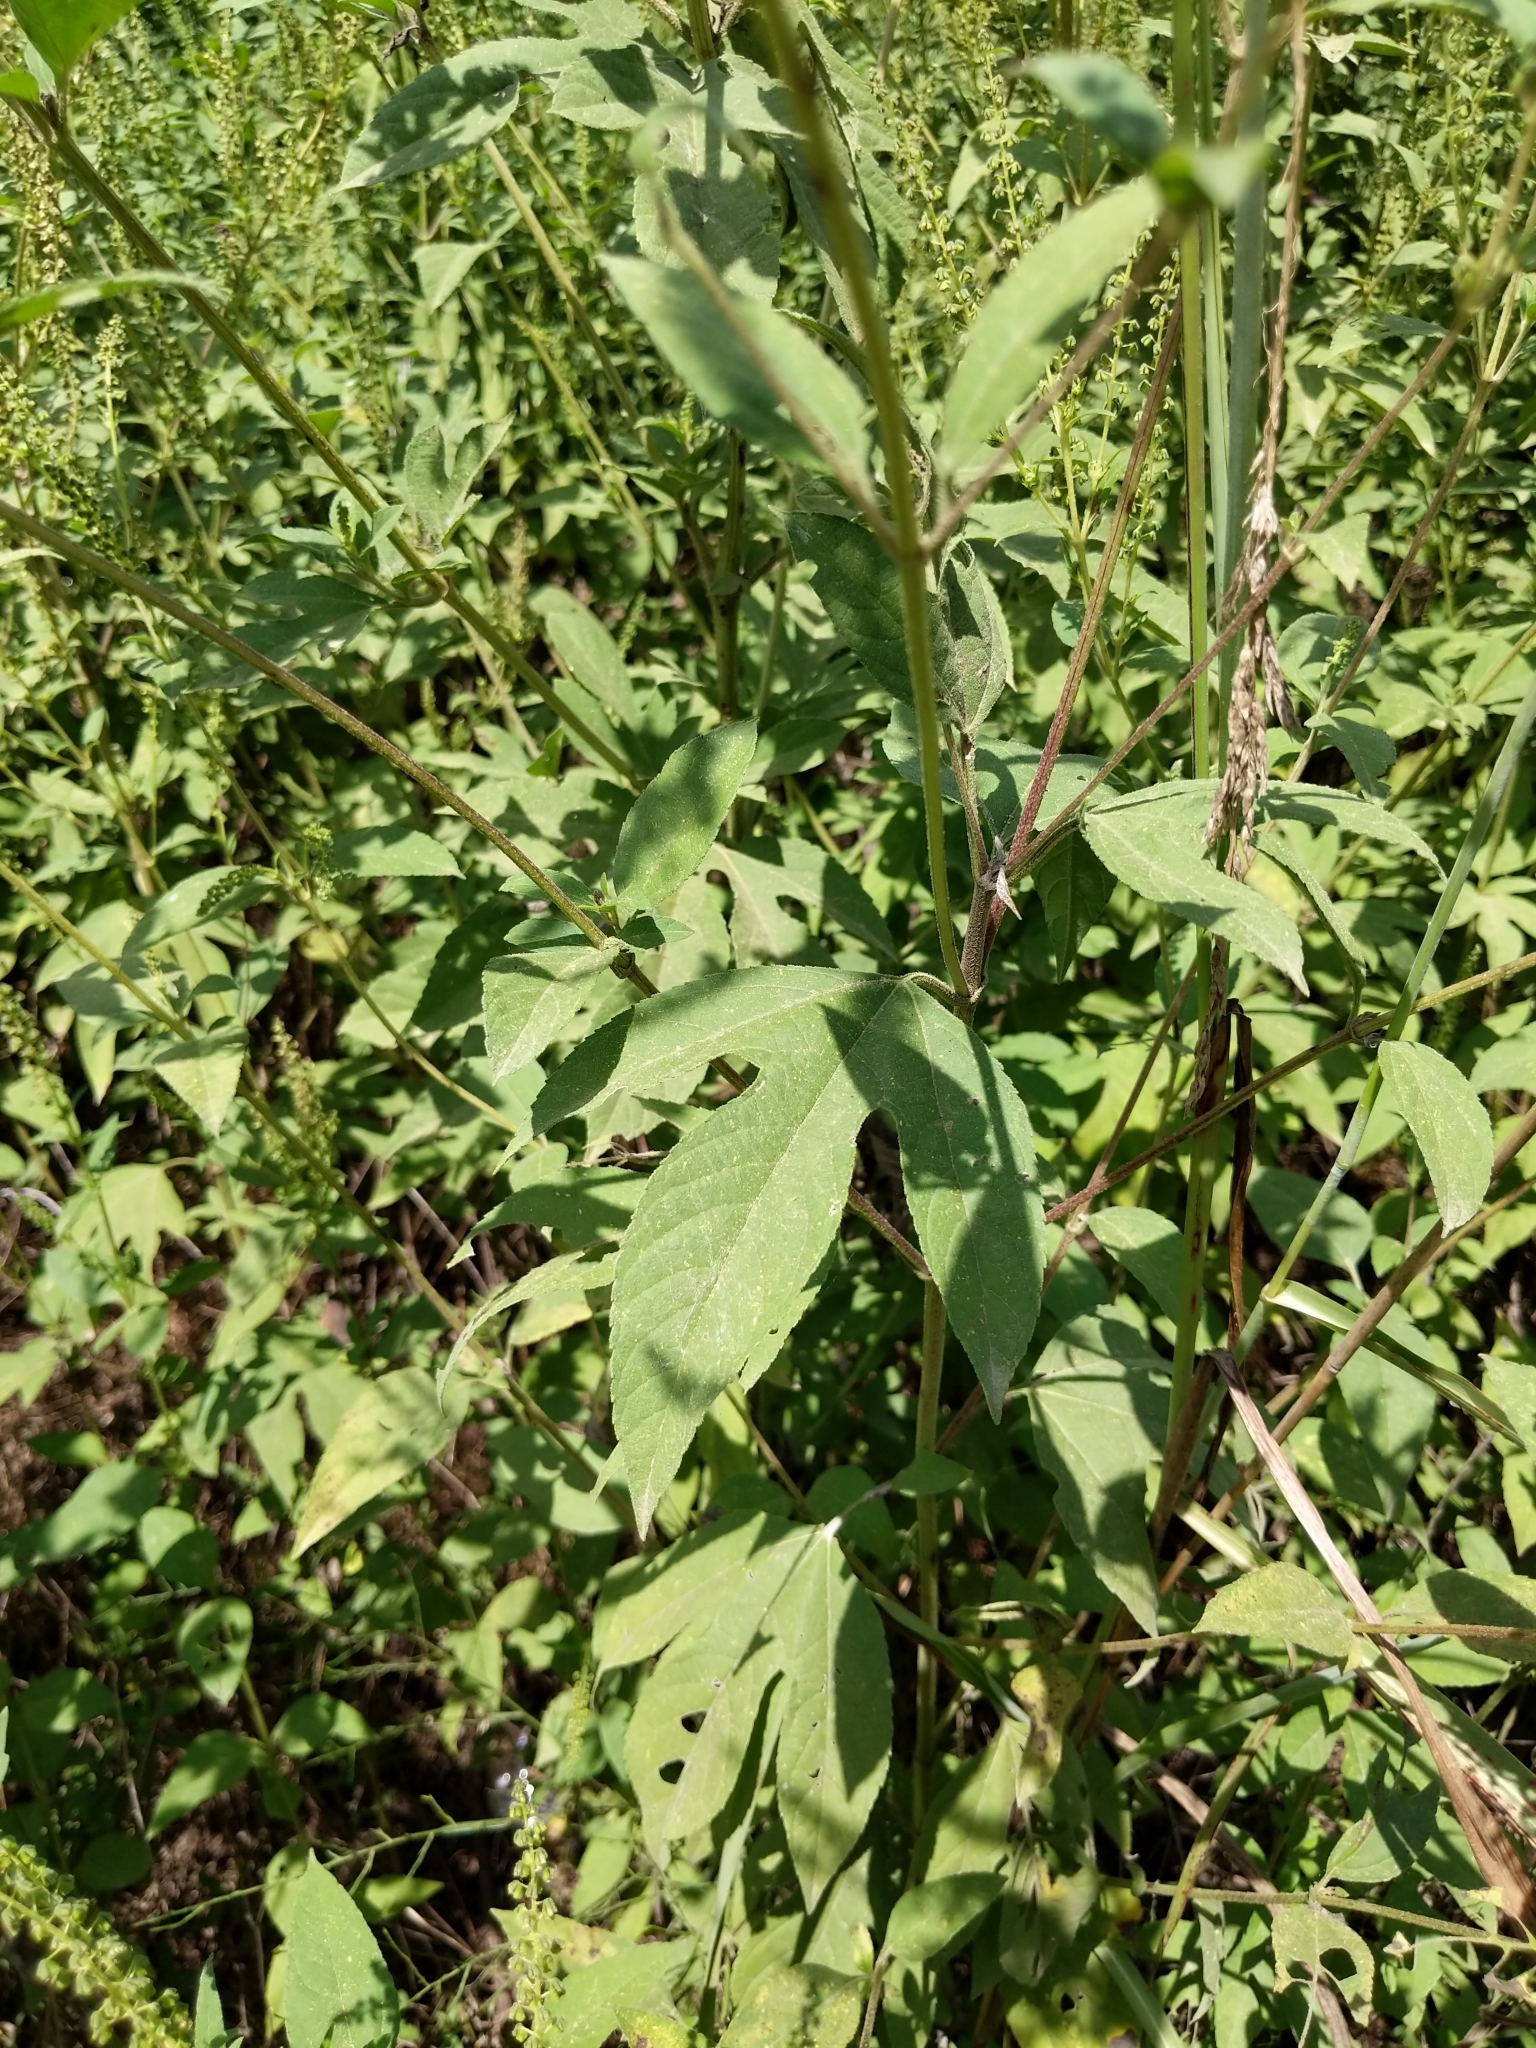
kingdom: Plantae
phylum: Tracheophyta
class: Magnoliopsida
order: Asterales
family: Asteraceae
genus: Ambrosia
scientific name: Ambrosia trifida
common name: Giant ragweed
